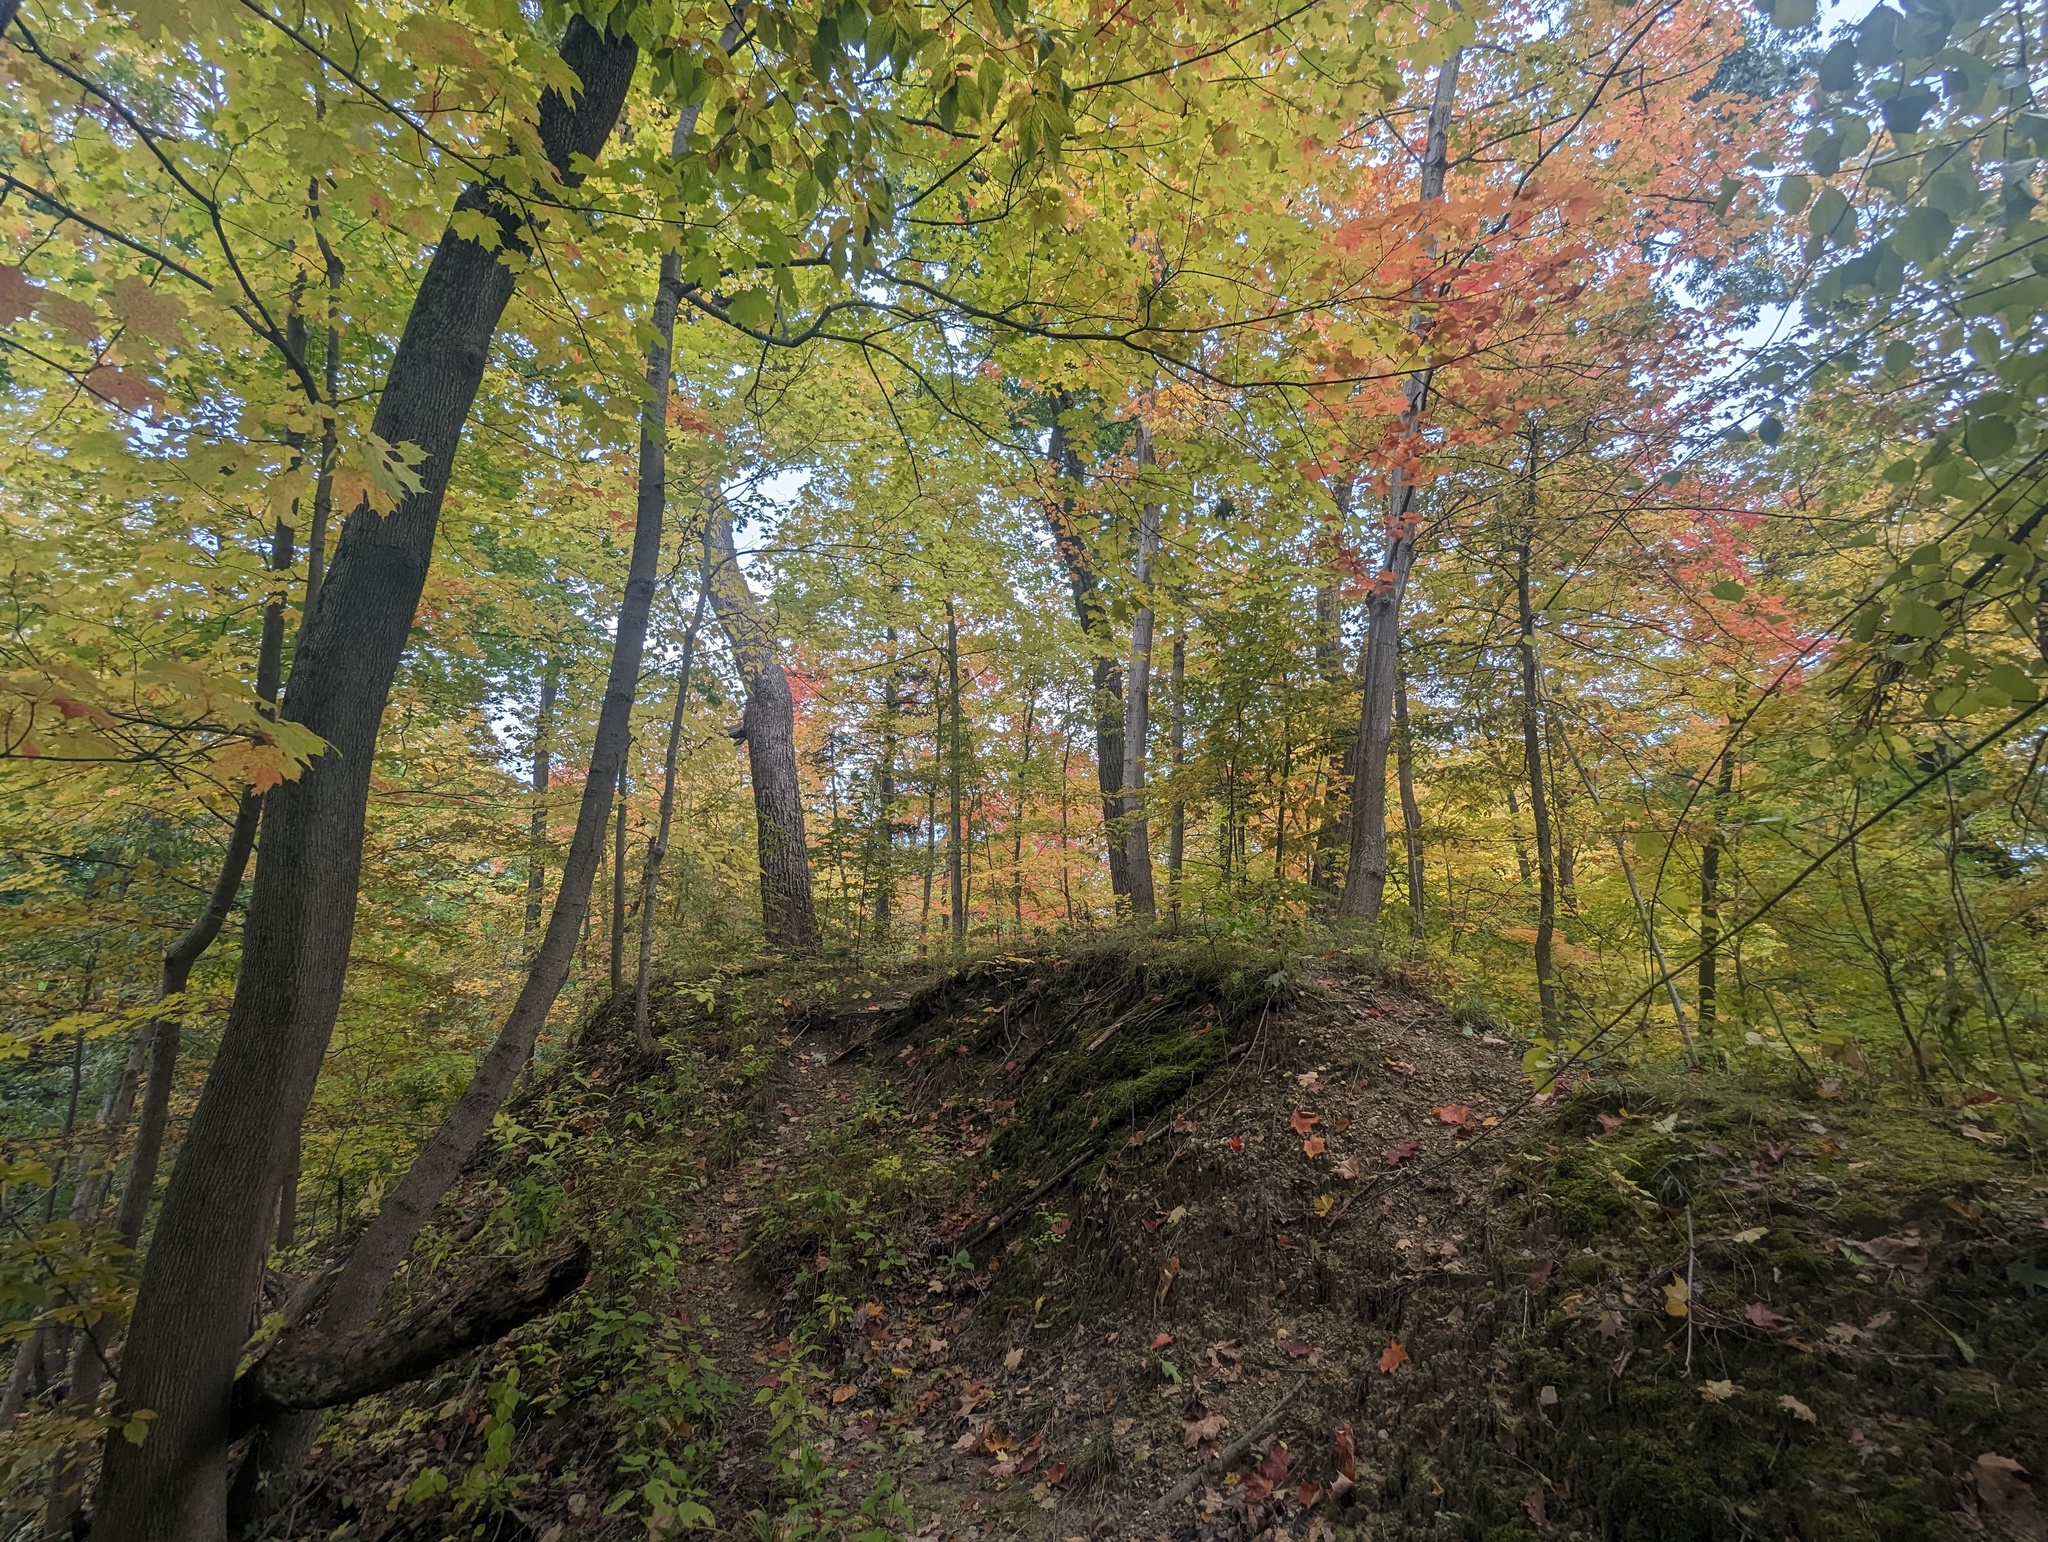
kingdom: Plantae
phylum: Tracheophyta
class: Magnoliopsida
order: Sapindales
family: Sapindaceae
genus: Acer
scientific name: Acer saccharum
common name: Sugar maple
